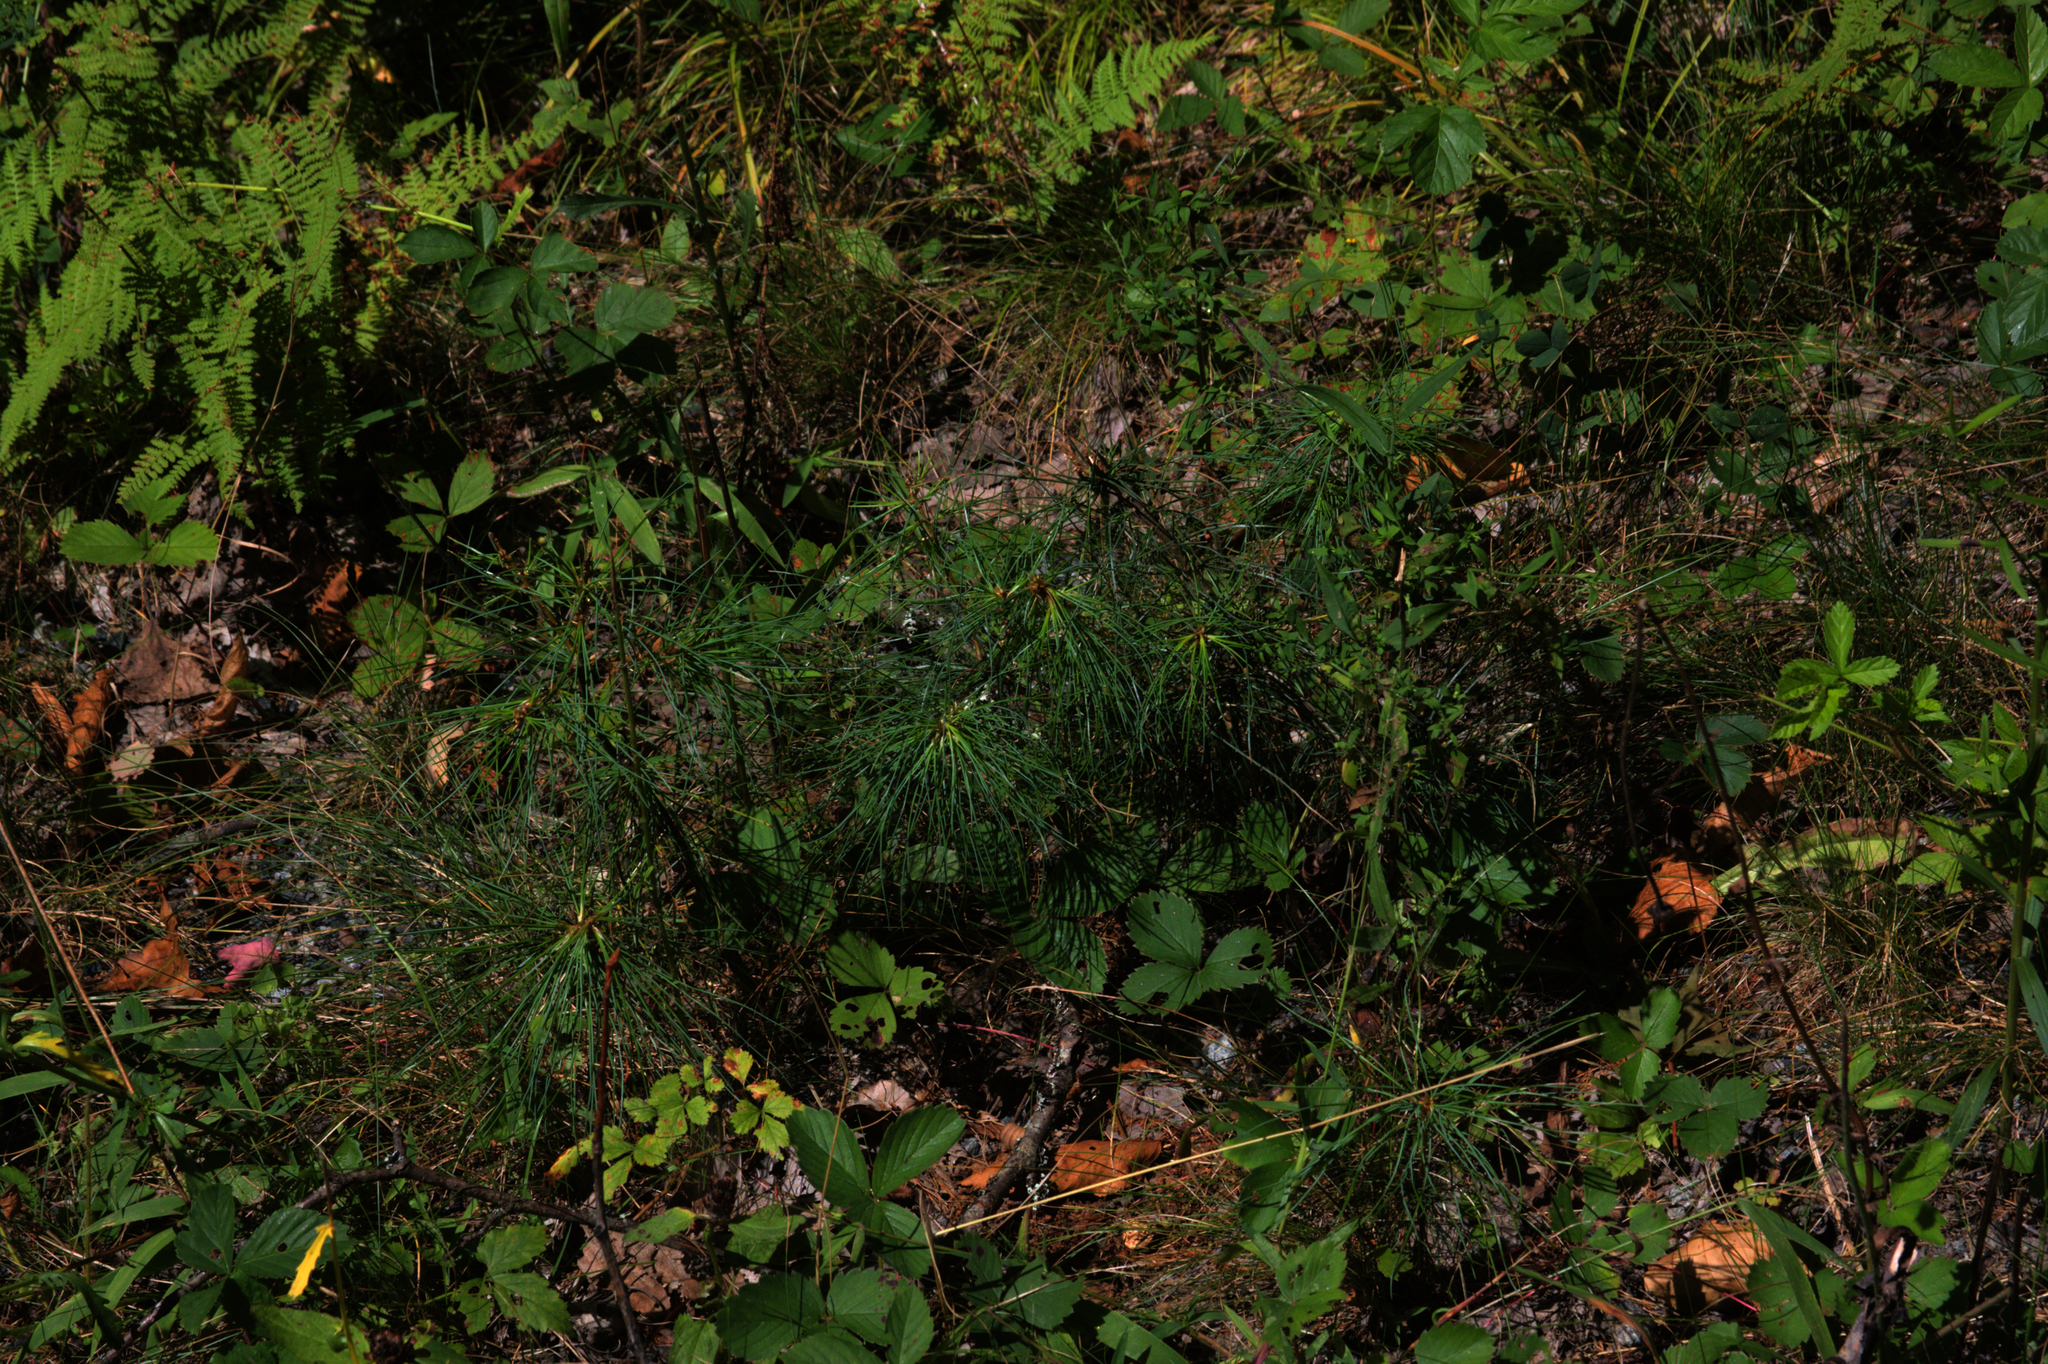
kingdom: Plantae
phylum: Tracheophyta
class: Pinopsida
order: Pinales
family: Pinaceae
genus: Pinus
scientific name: Pinus strobus
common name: Weymouth pine
